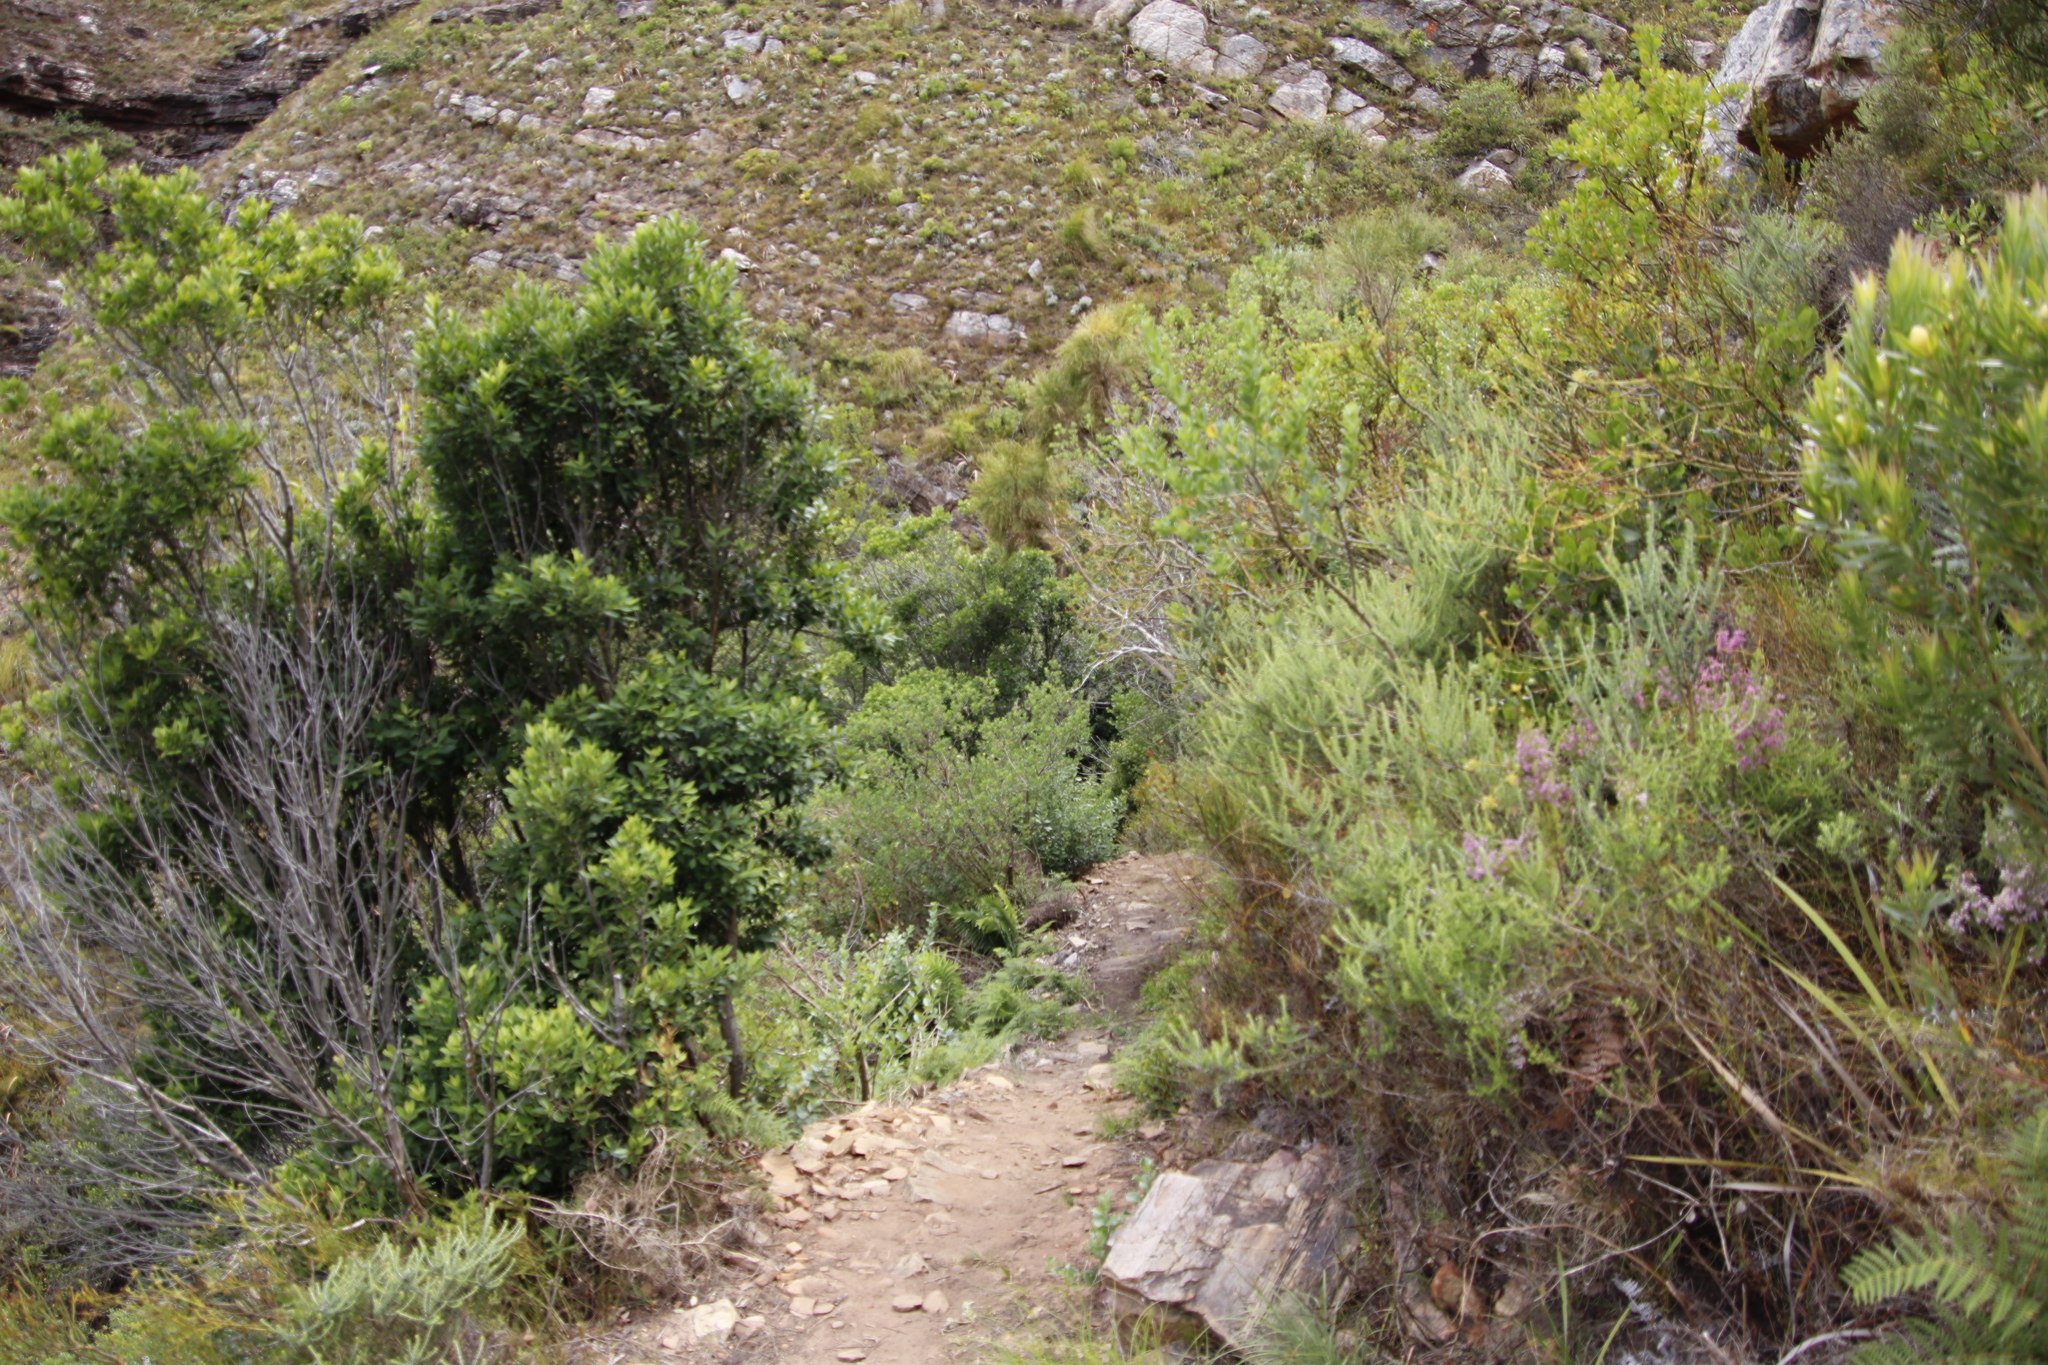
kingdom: Plantae
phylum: Tracheophyta
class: Magnoliopsida
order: Celastrales
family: Celastraceae
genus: Elaeodendron
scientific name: Elaeodendron schinoides
